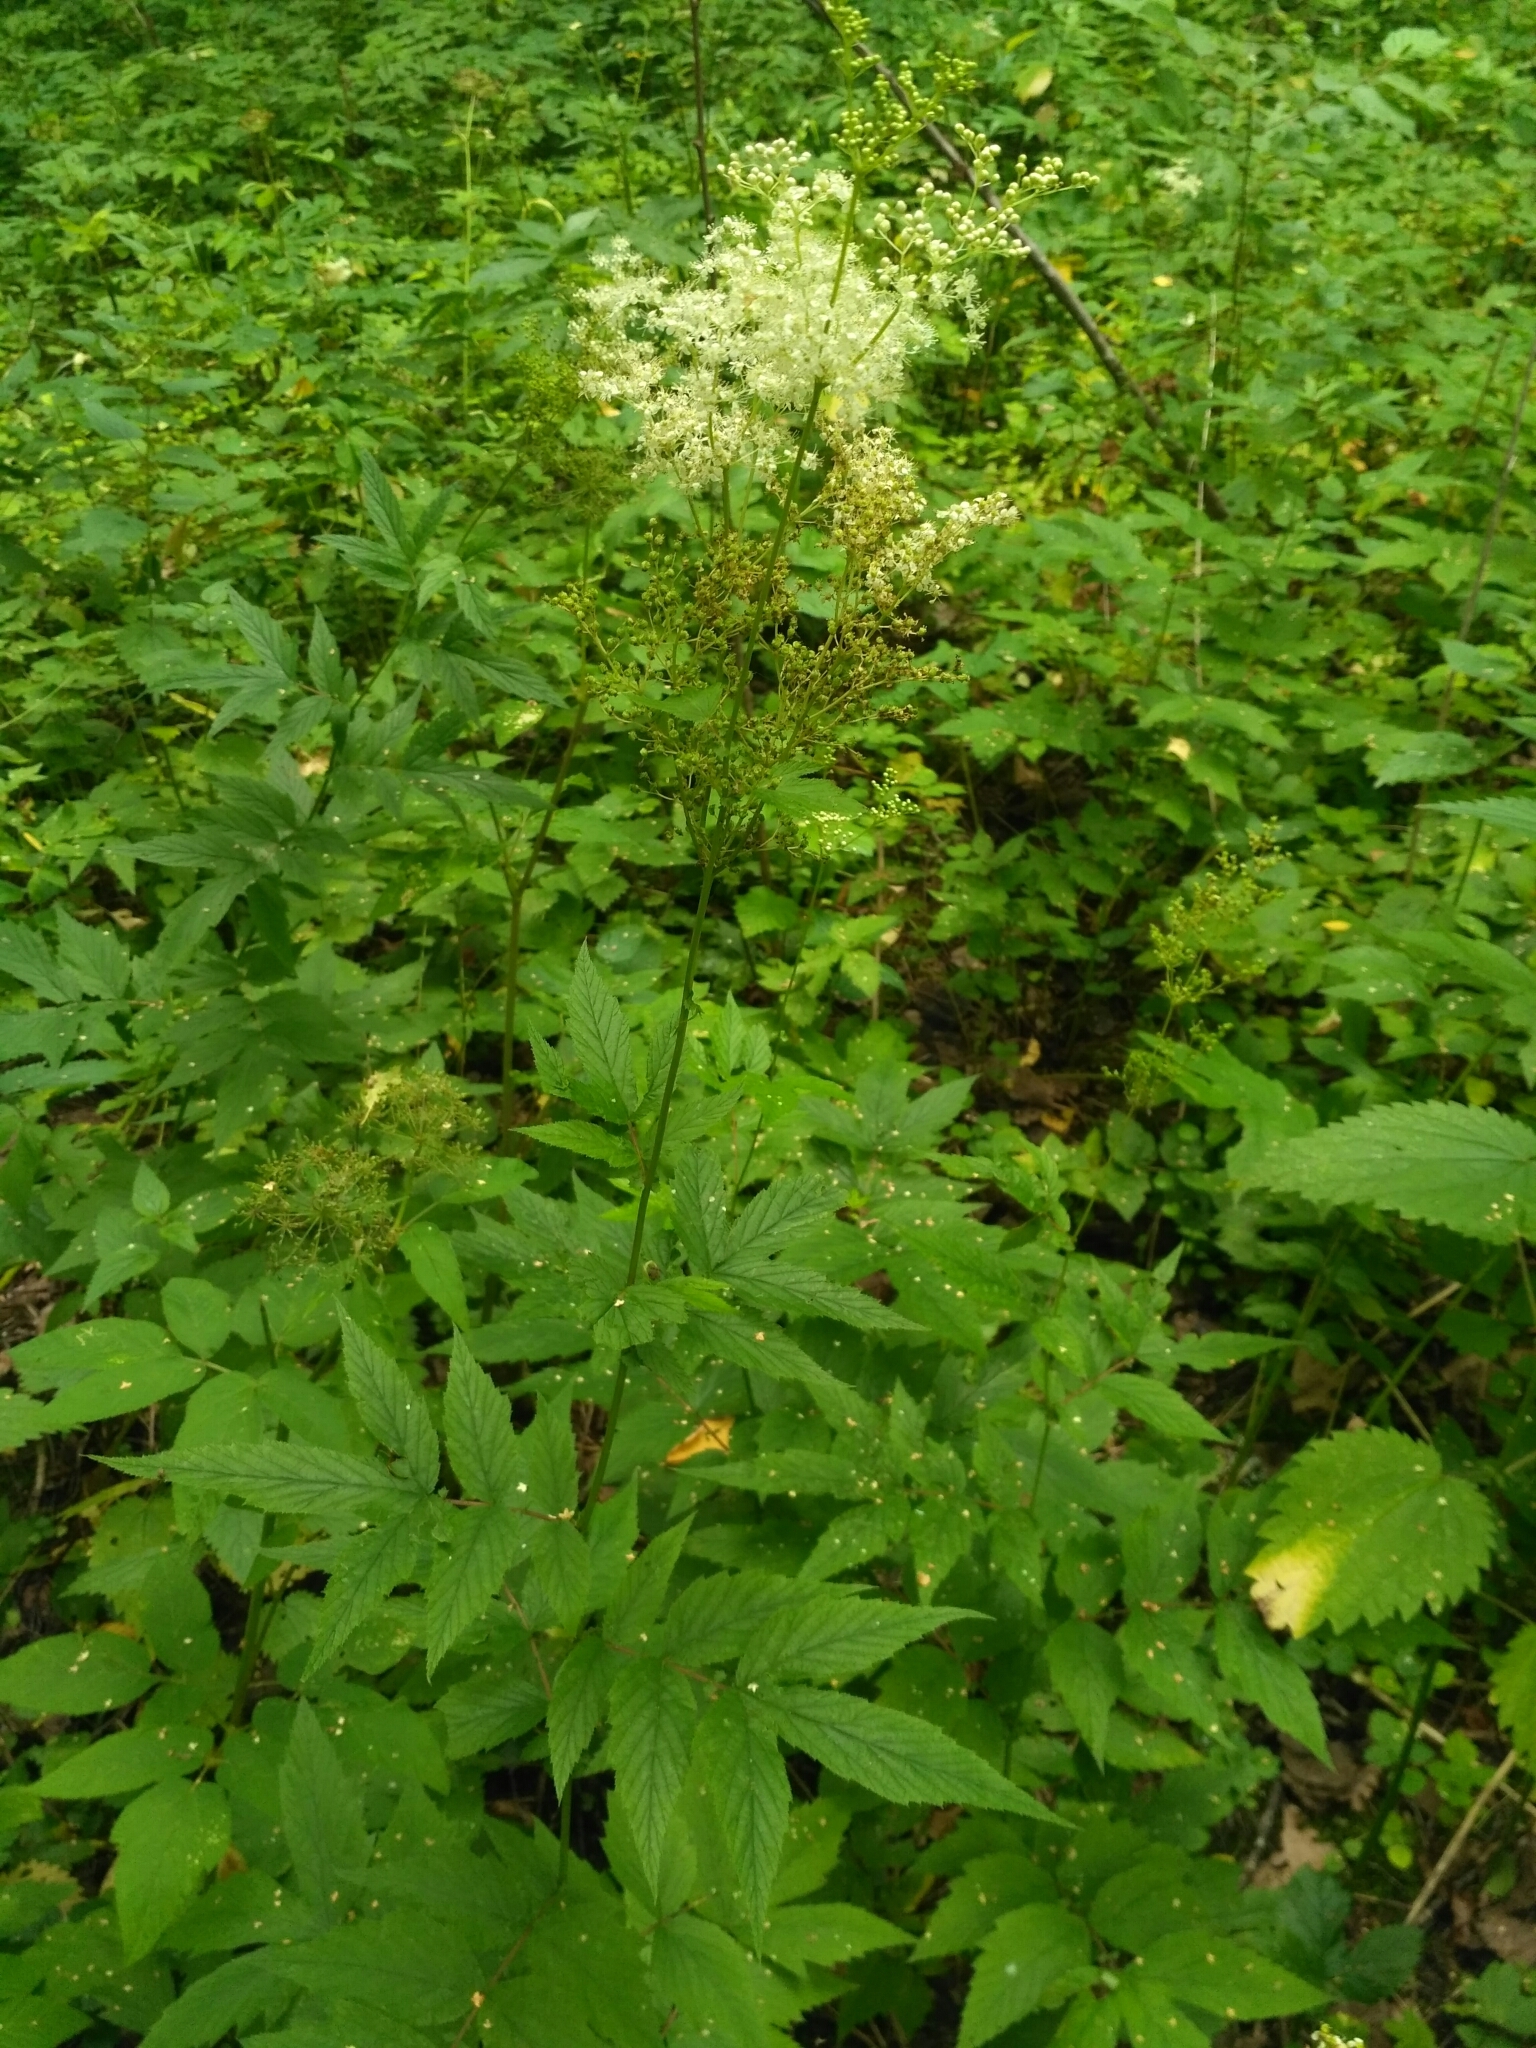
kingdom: Plantae
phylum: Tracheophyta
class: Magnoliopsida
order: Rosales
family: Rosaceae
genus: Filipendula
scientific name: Filipendula ulmaria
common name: Meadowsweet
